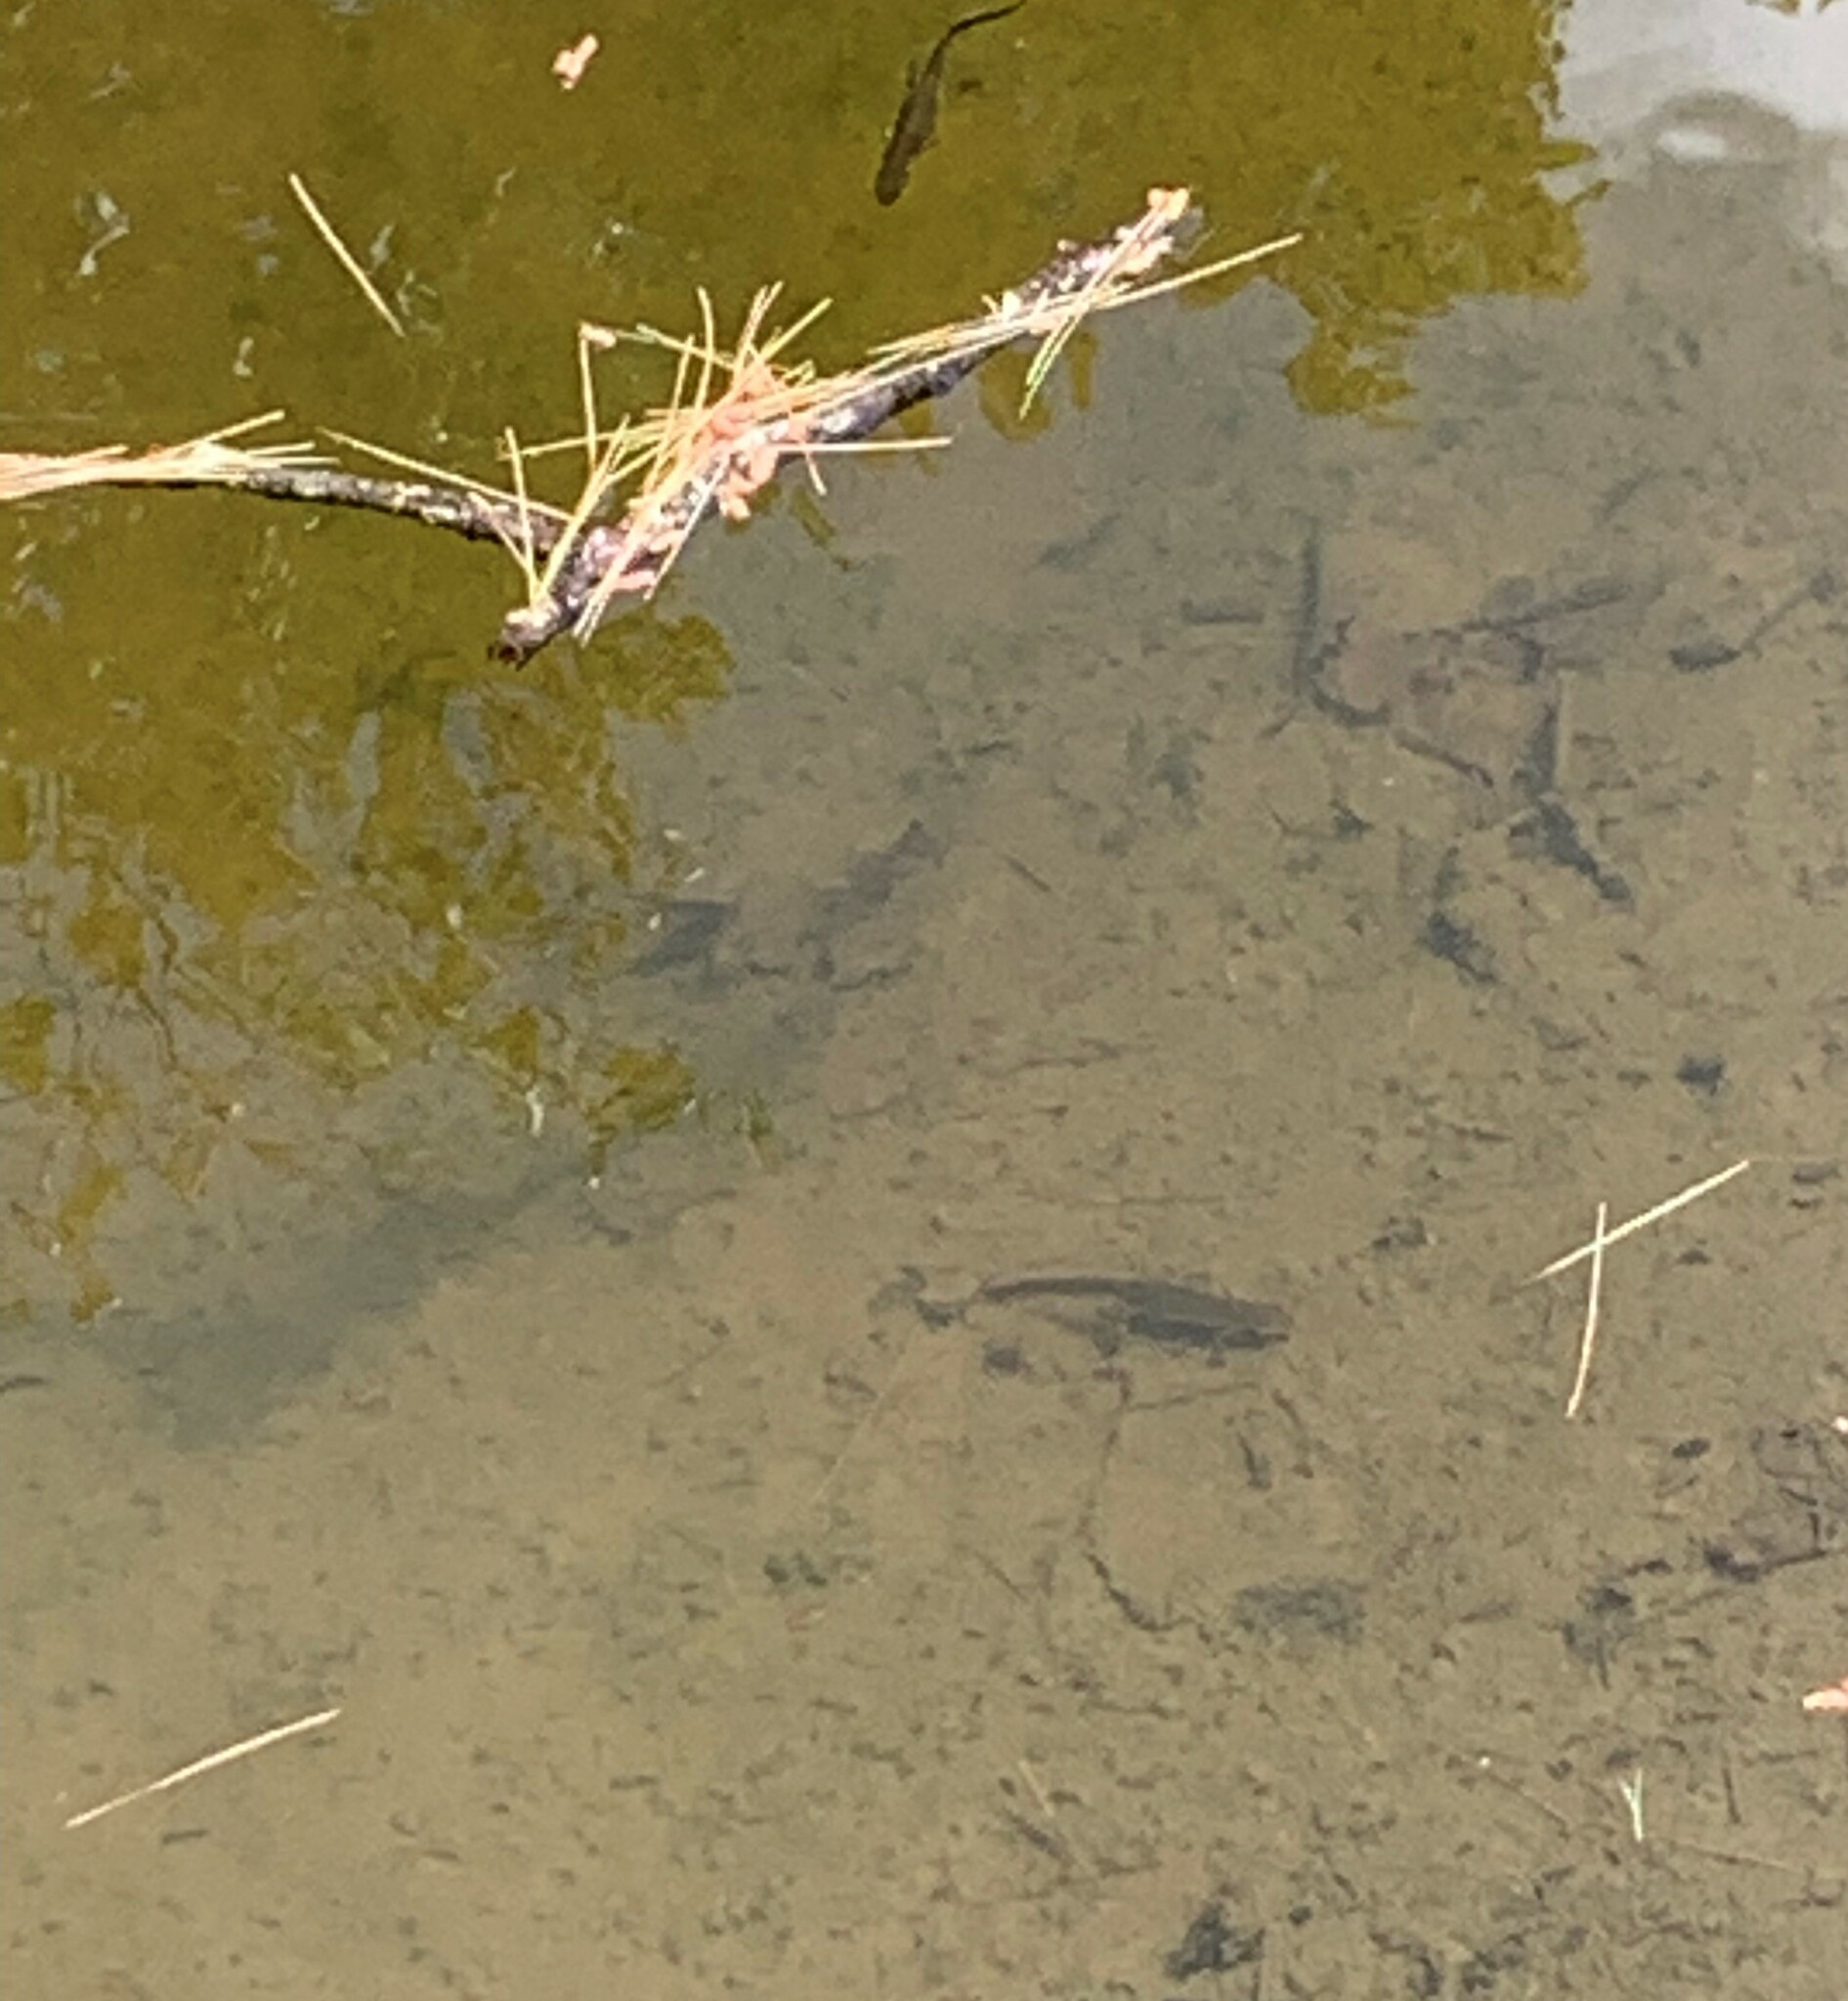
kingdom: Animalia
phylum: Chordata
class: Amphibia
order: Caudata
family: Salamandridae
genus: Notophthalmus
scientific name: Notophthalmus viridescens
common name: Eastern newt
